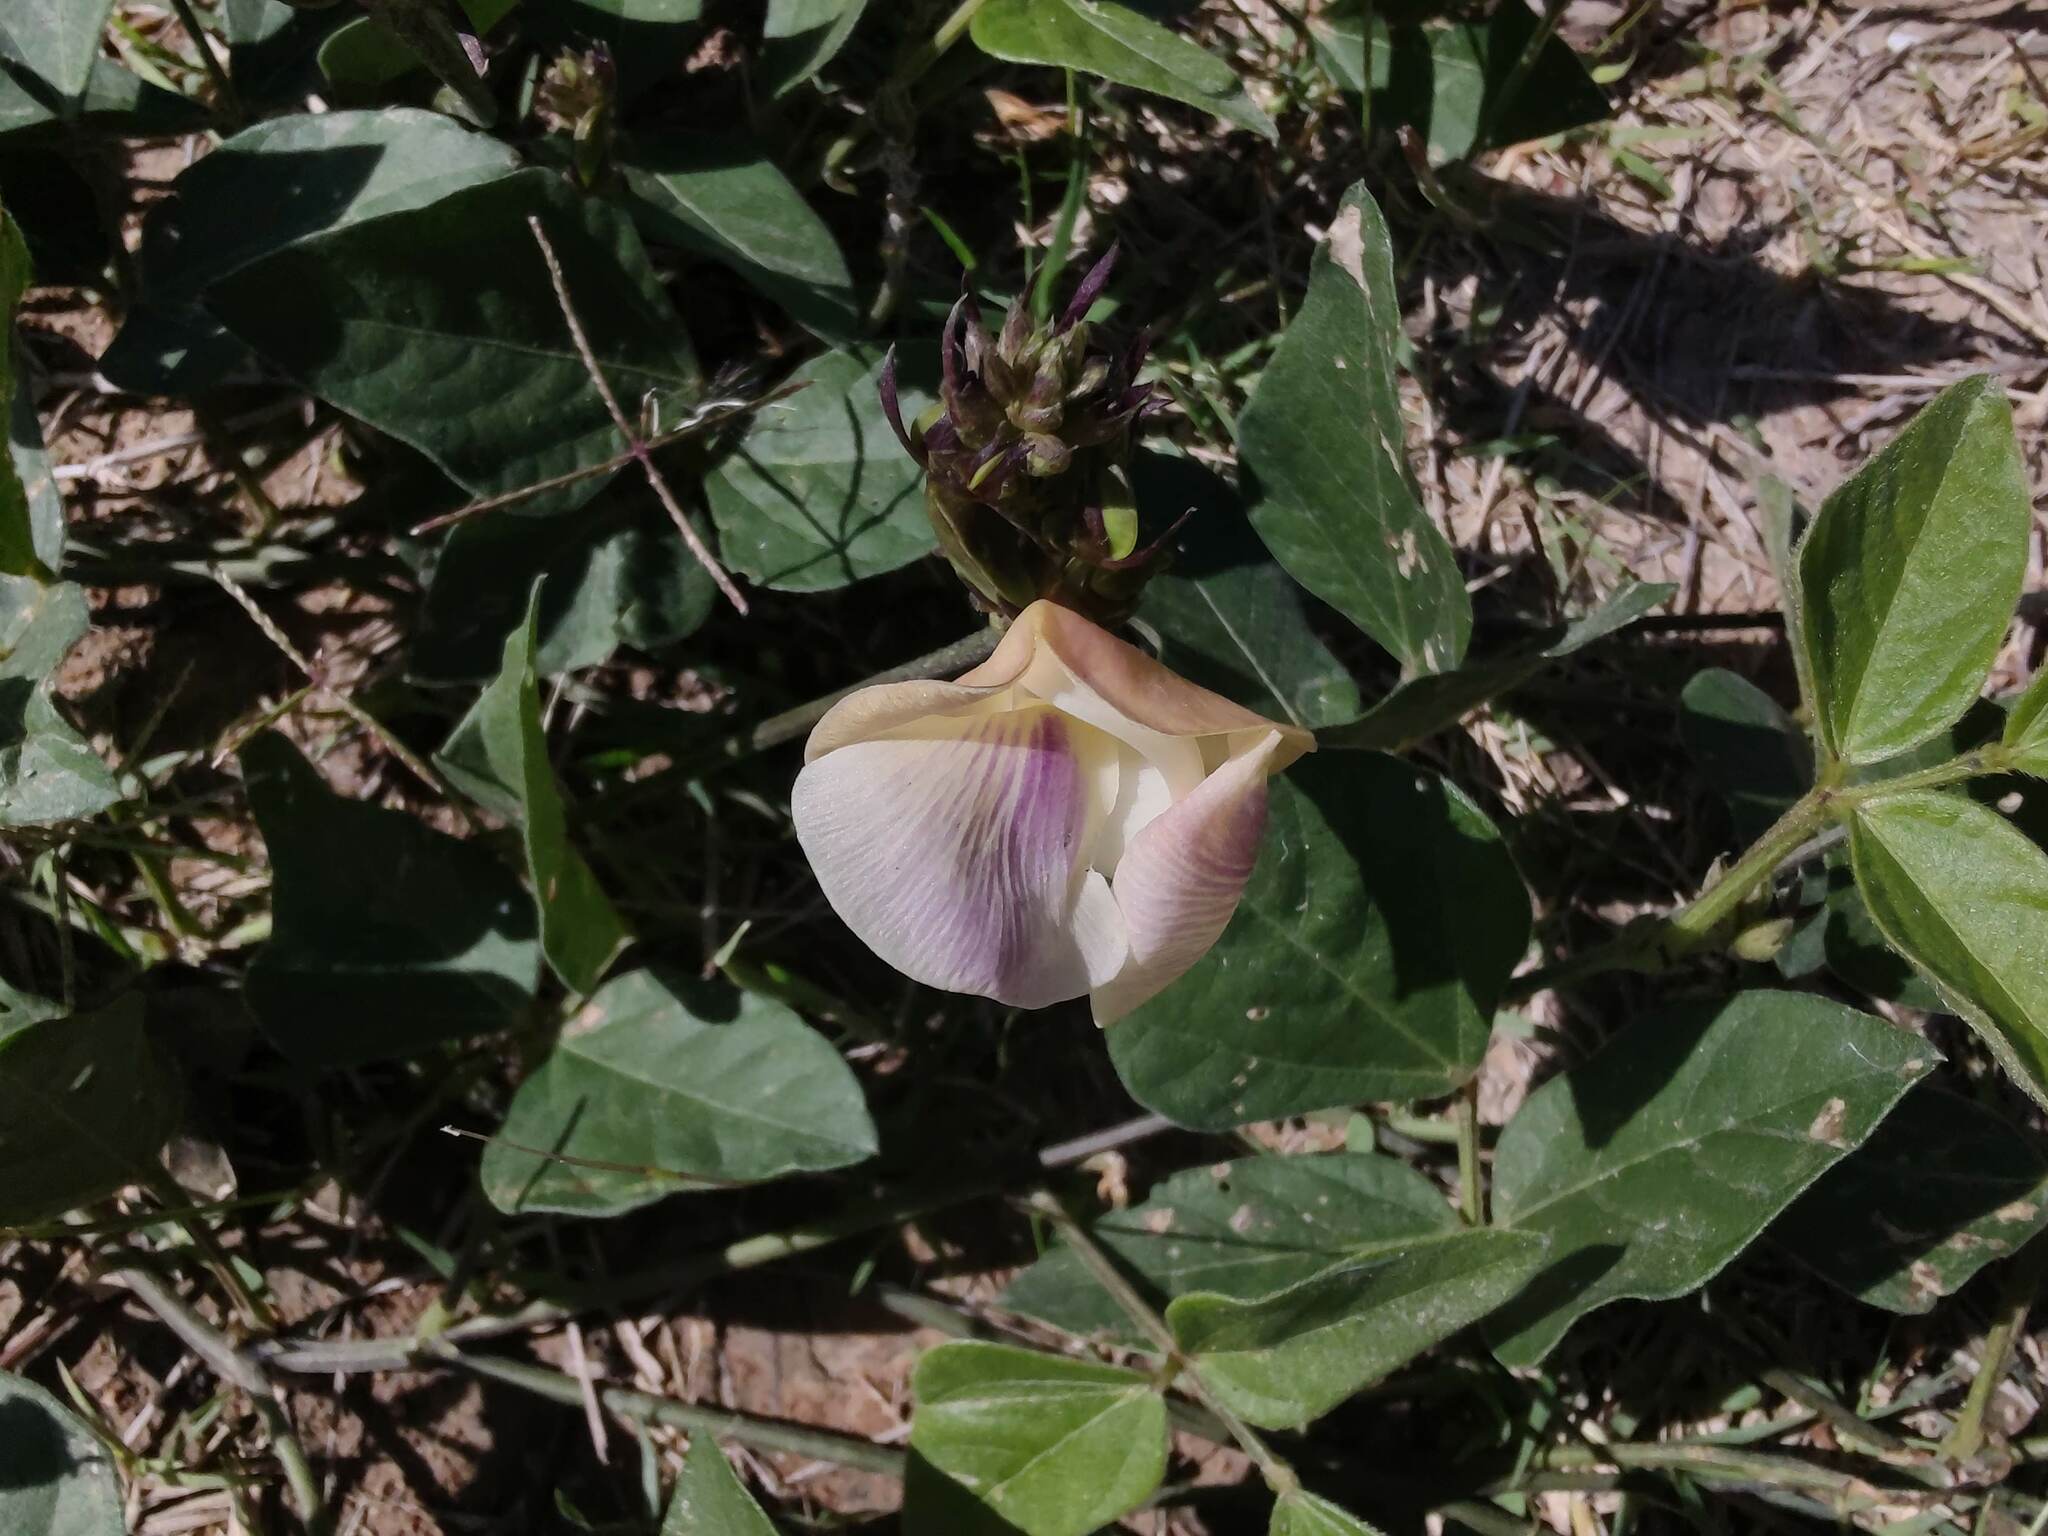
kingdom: Plantae
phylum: Tracheophyta
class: Magnoliopsida
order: Fabales
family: Fabaceae
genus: Leptospron
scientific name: Leptospron adenanthum
